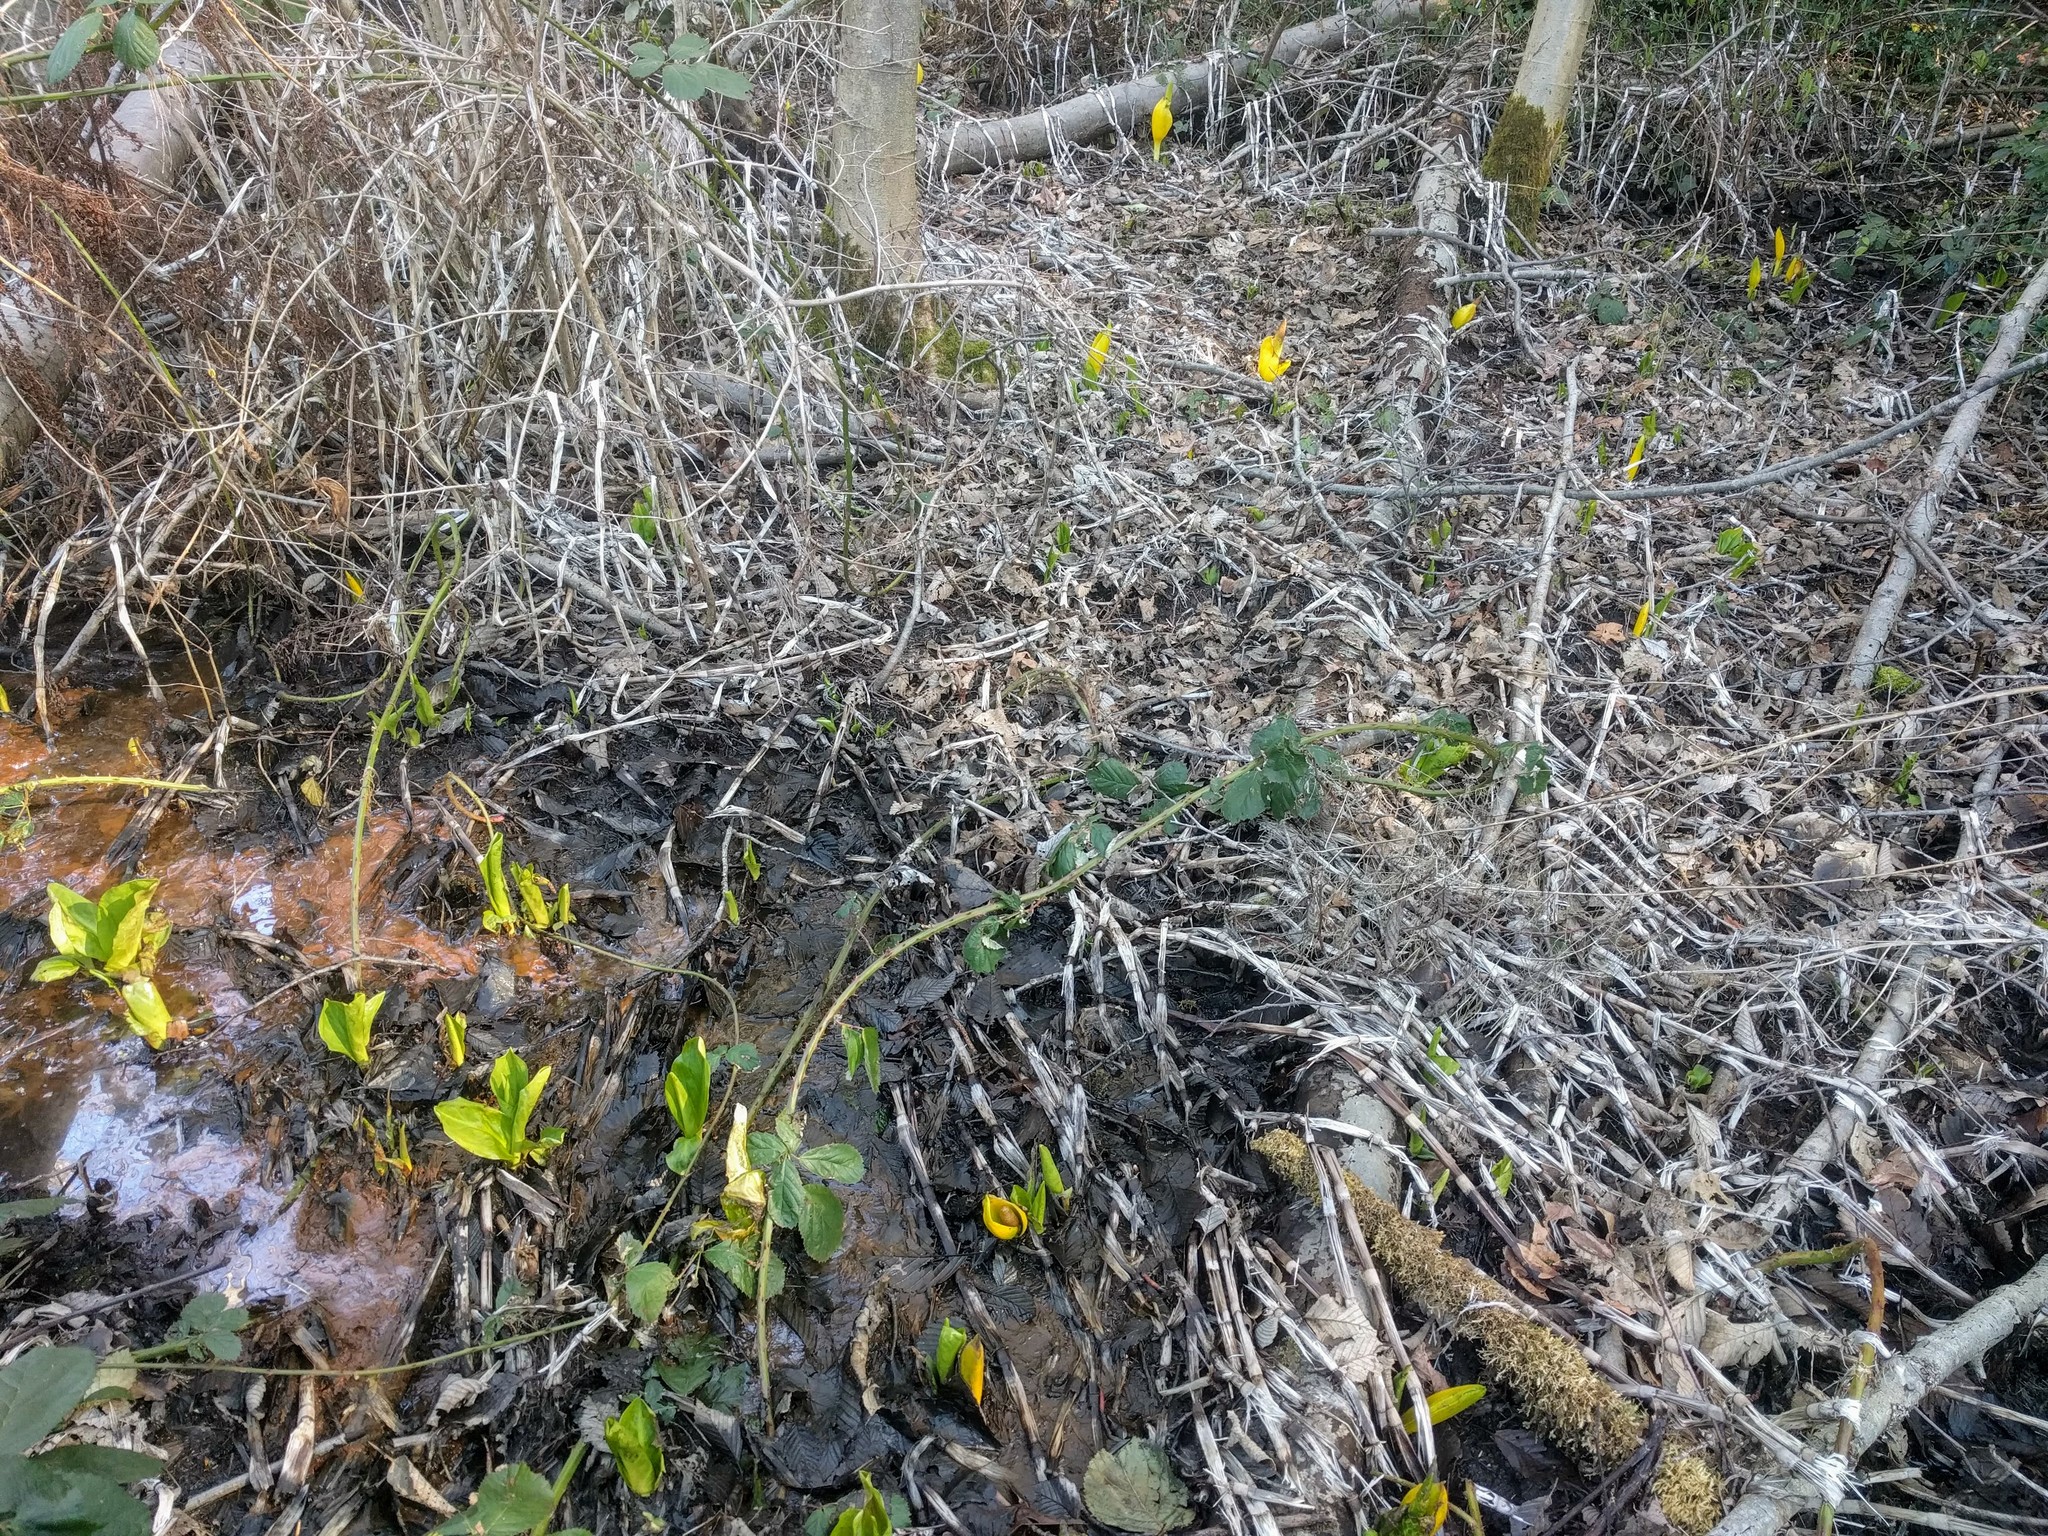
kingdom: Plantae
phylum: Tracheophyta
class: Liliopsida
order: Alismatales
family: Araceae
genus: Lysichiton
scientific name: Lysichiton americanus
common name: American skunk cabbage
